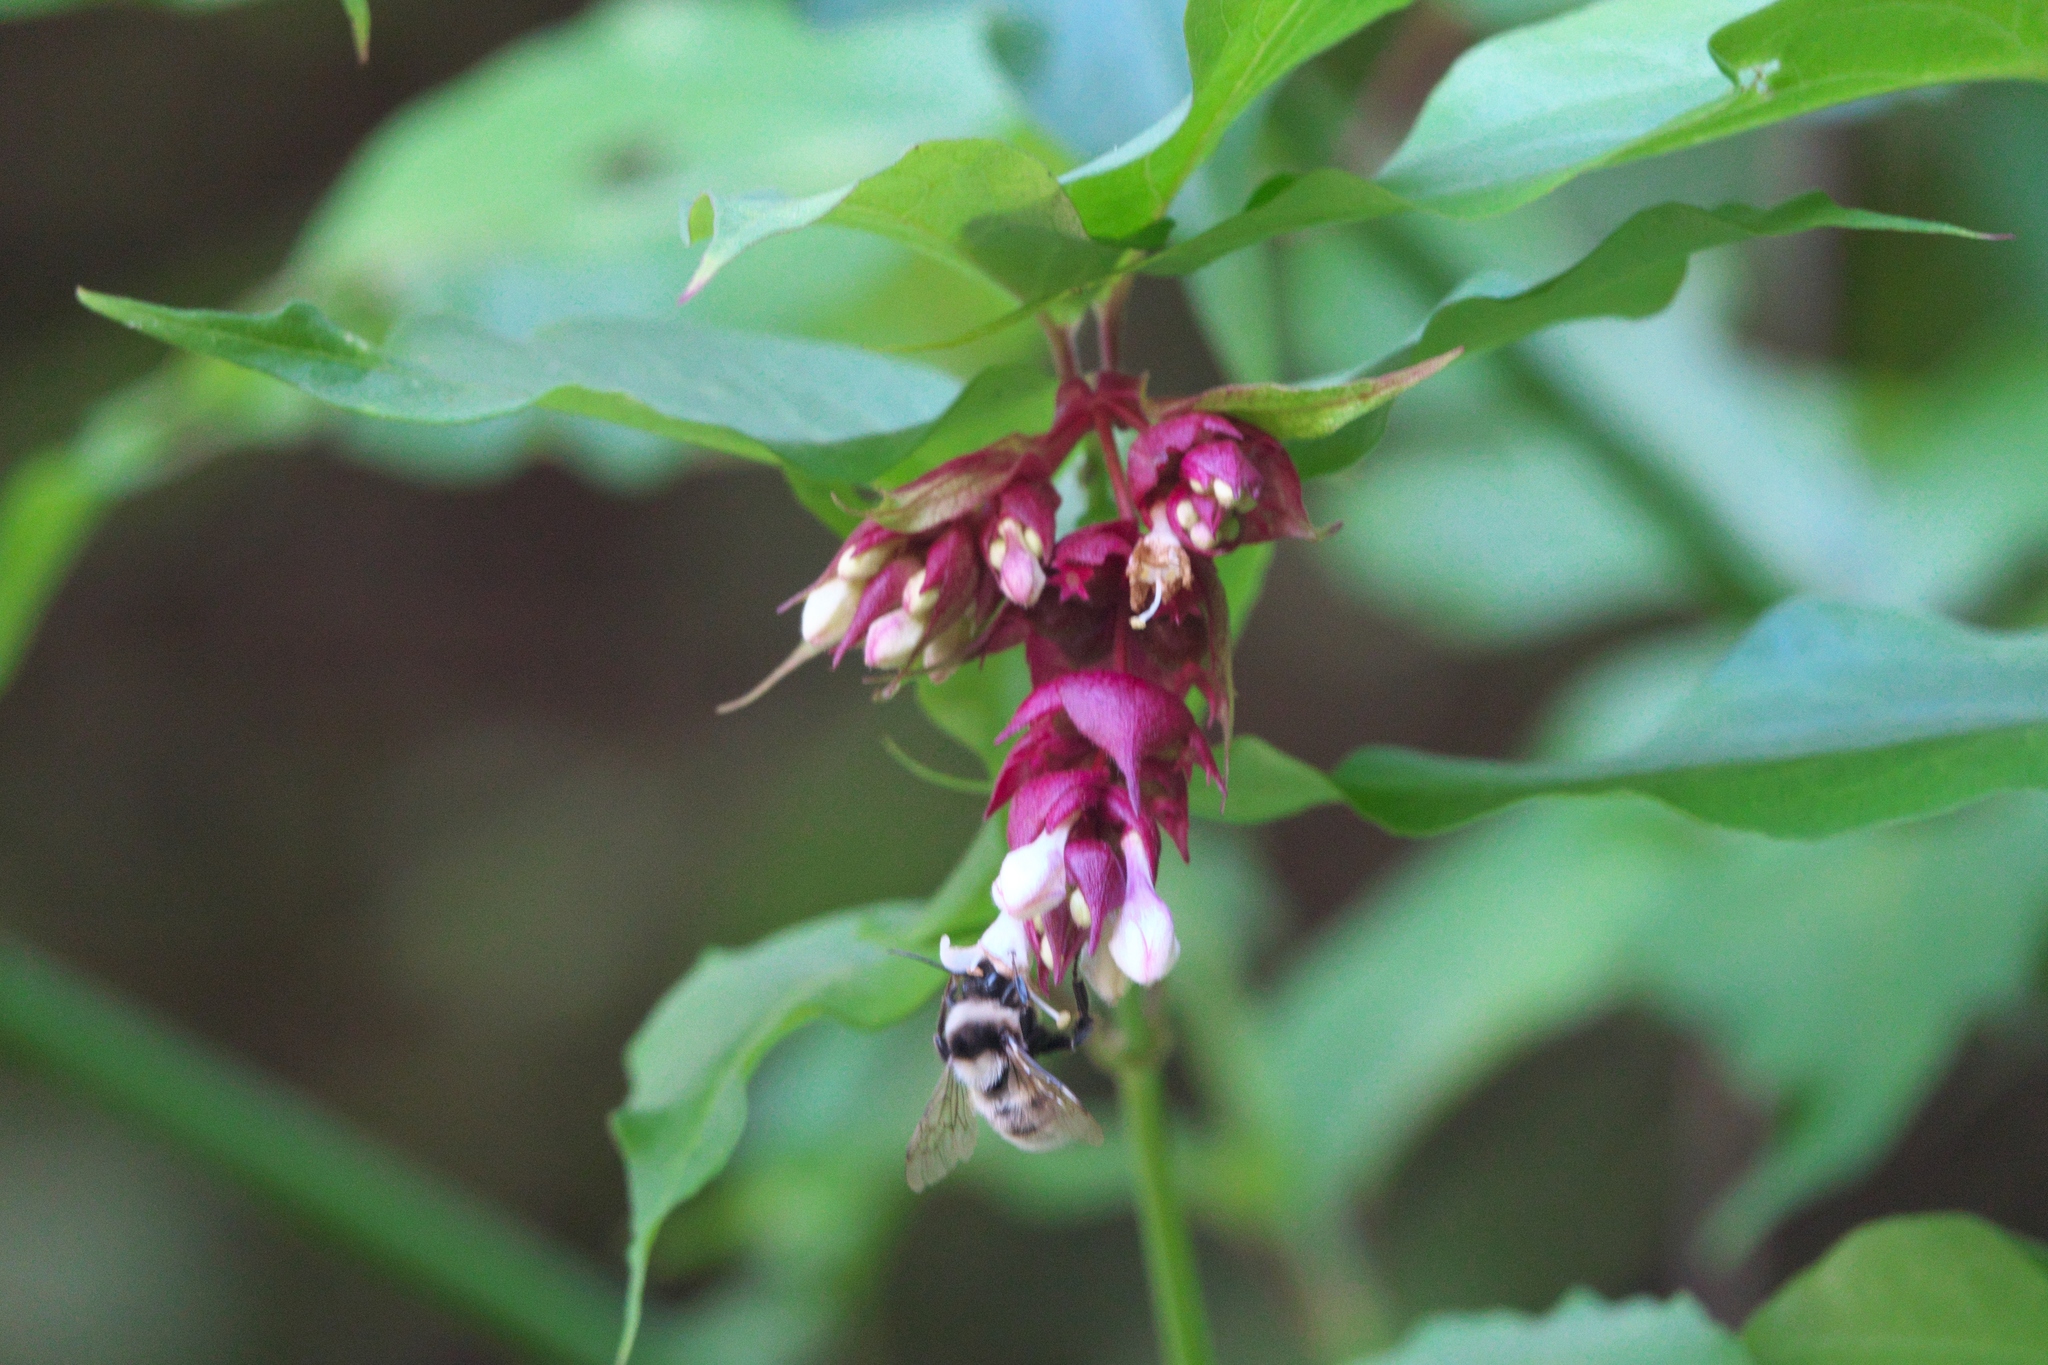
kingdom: Plantae
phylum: Tracheophyta
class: Magnoliopsida
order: Dipsacales
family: Caprifoliaceae
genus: Leycesteria
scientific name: Leycesteria formosa
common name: Himalayan honeysuckle
